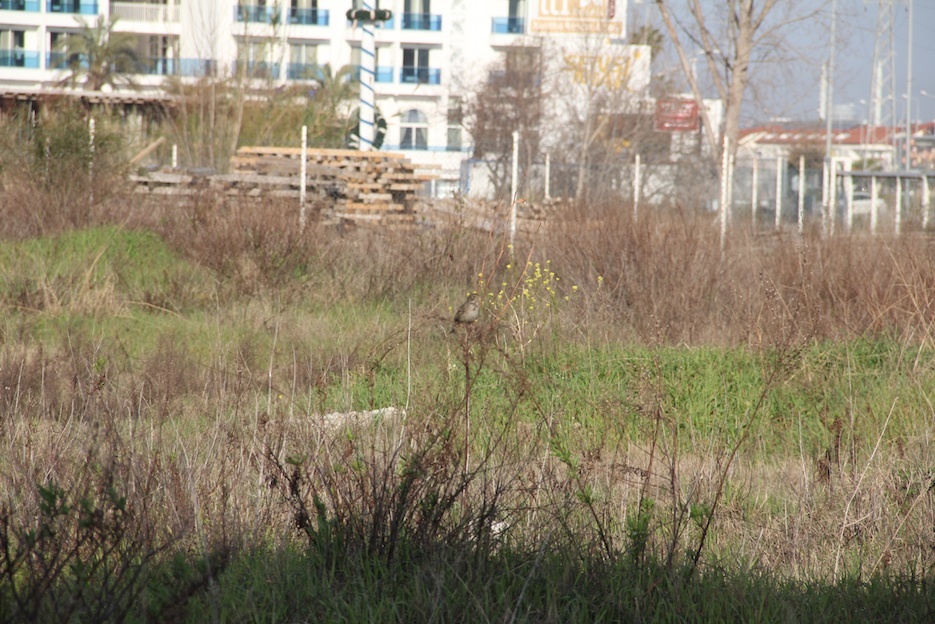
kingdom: Animalia
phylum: Chordata
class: Aves
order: Passeriformes
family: Emberizidae
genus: Emberiza
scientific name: Emberiza calandra
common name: Corn bunting
